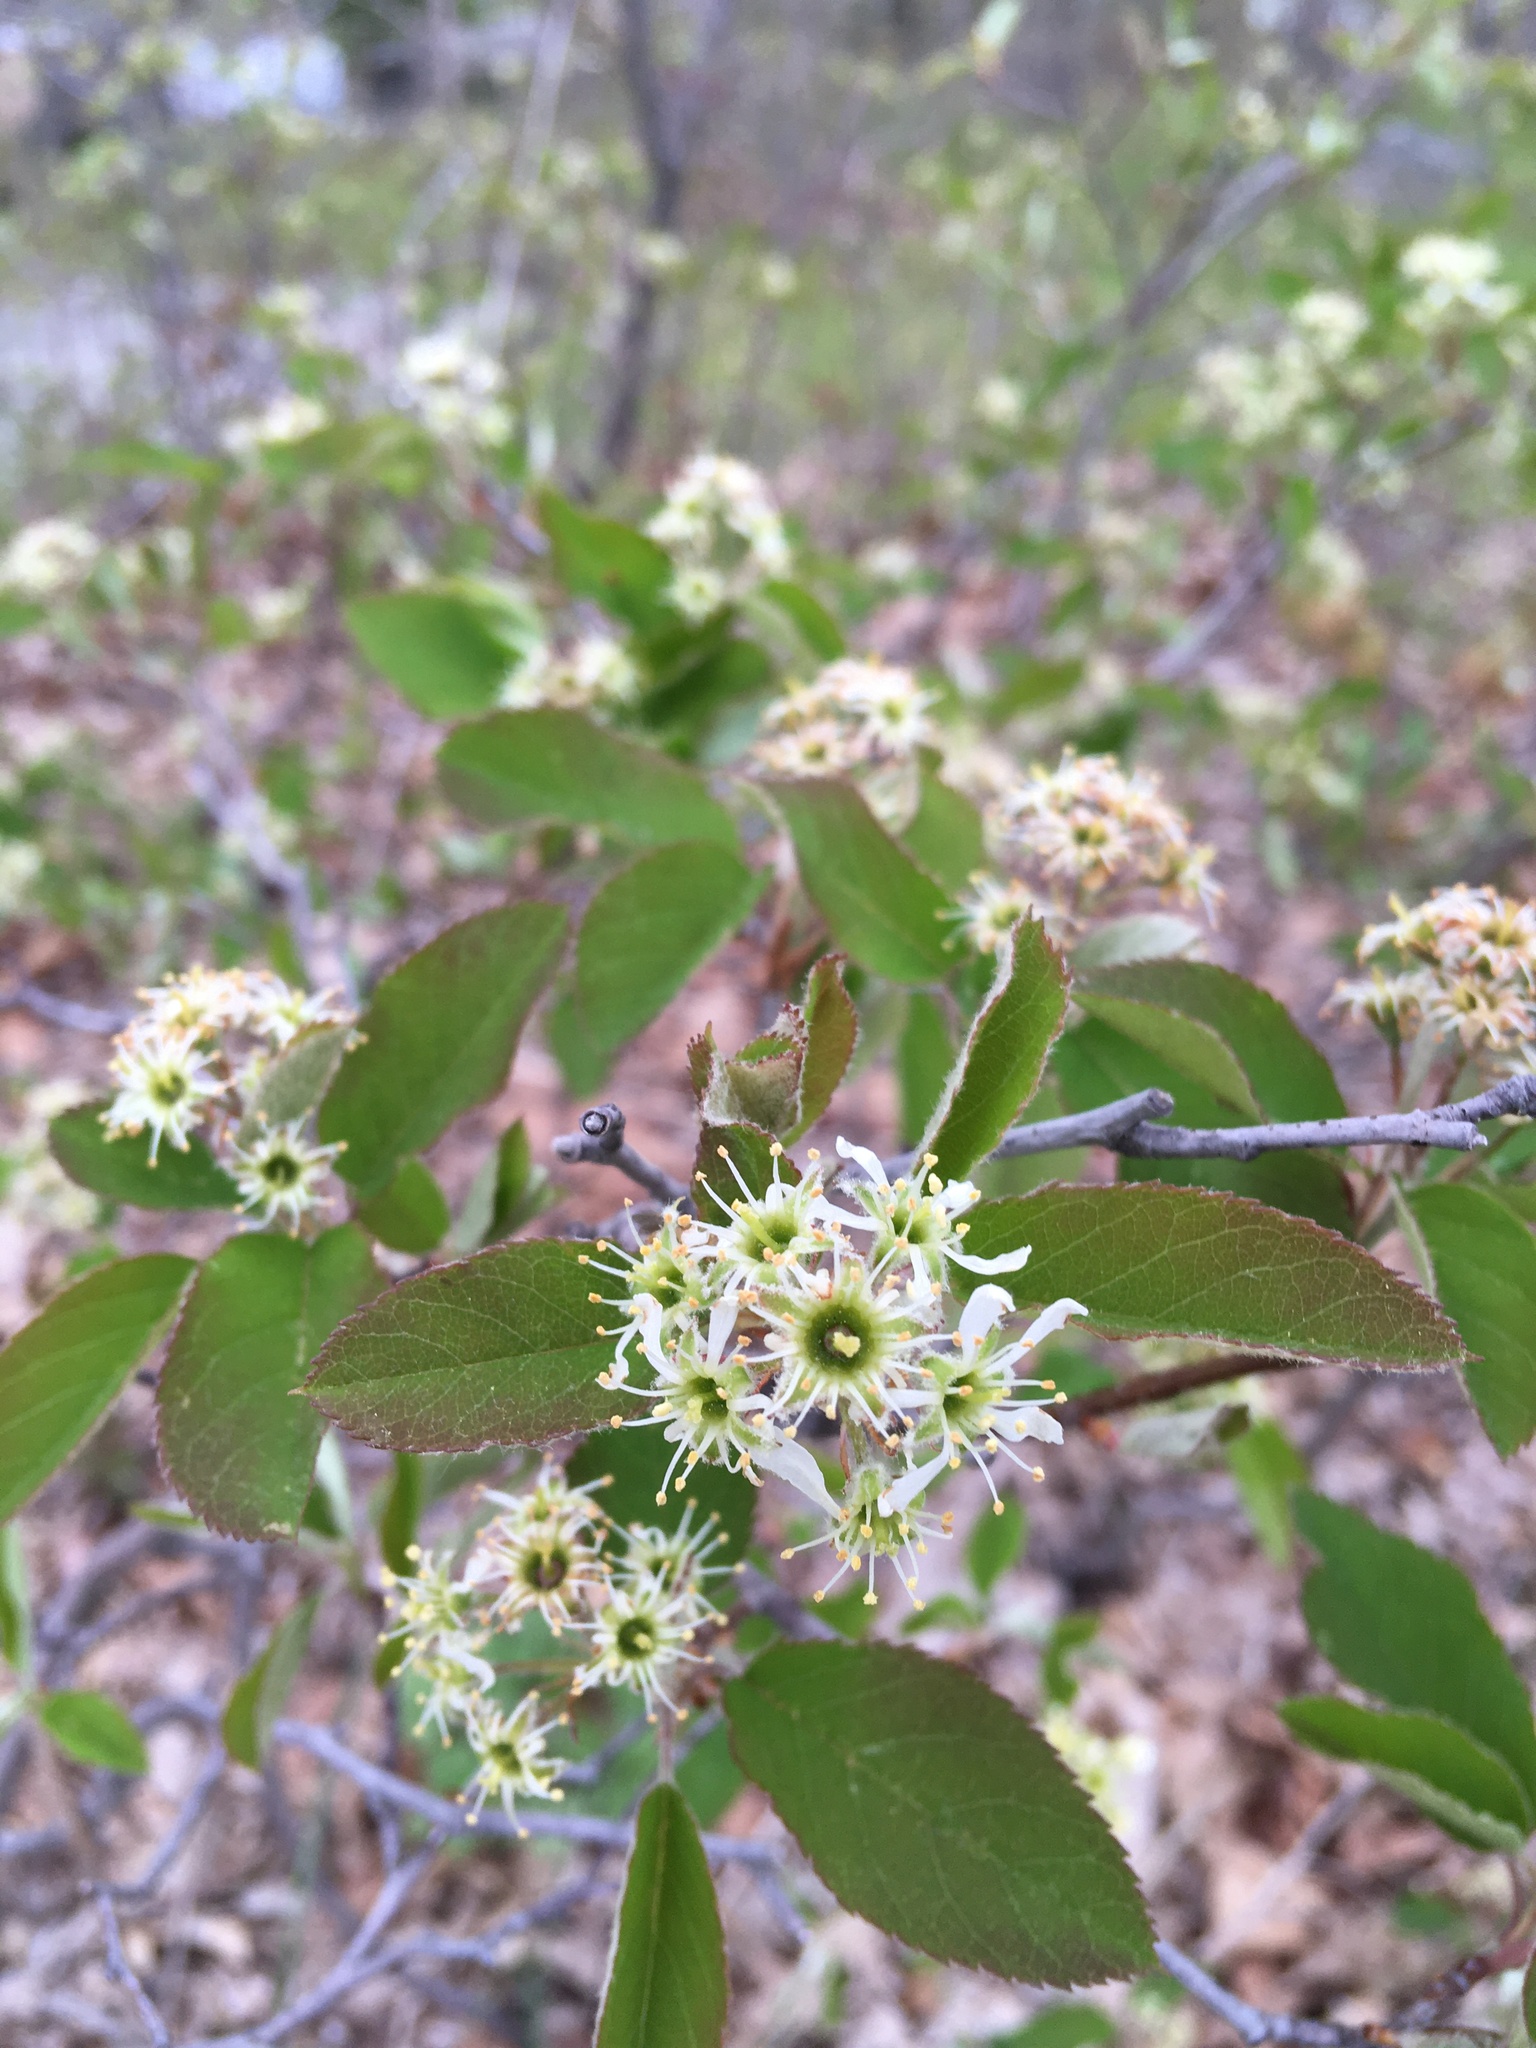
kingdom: Plantae
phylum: Tracheophyta
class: Magnoliopsida
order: Rosales
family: Rosaceae
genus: Amelanchier
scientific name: Amelanchier nantucketensis
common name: Nantucket shadbush
